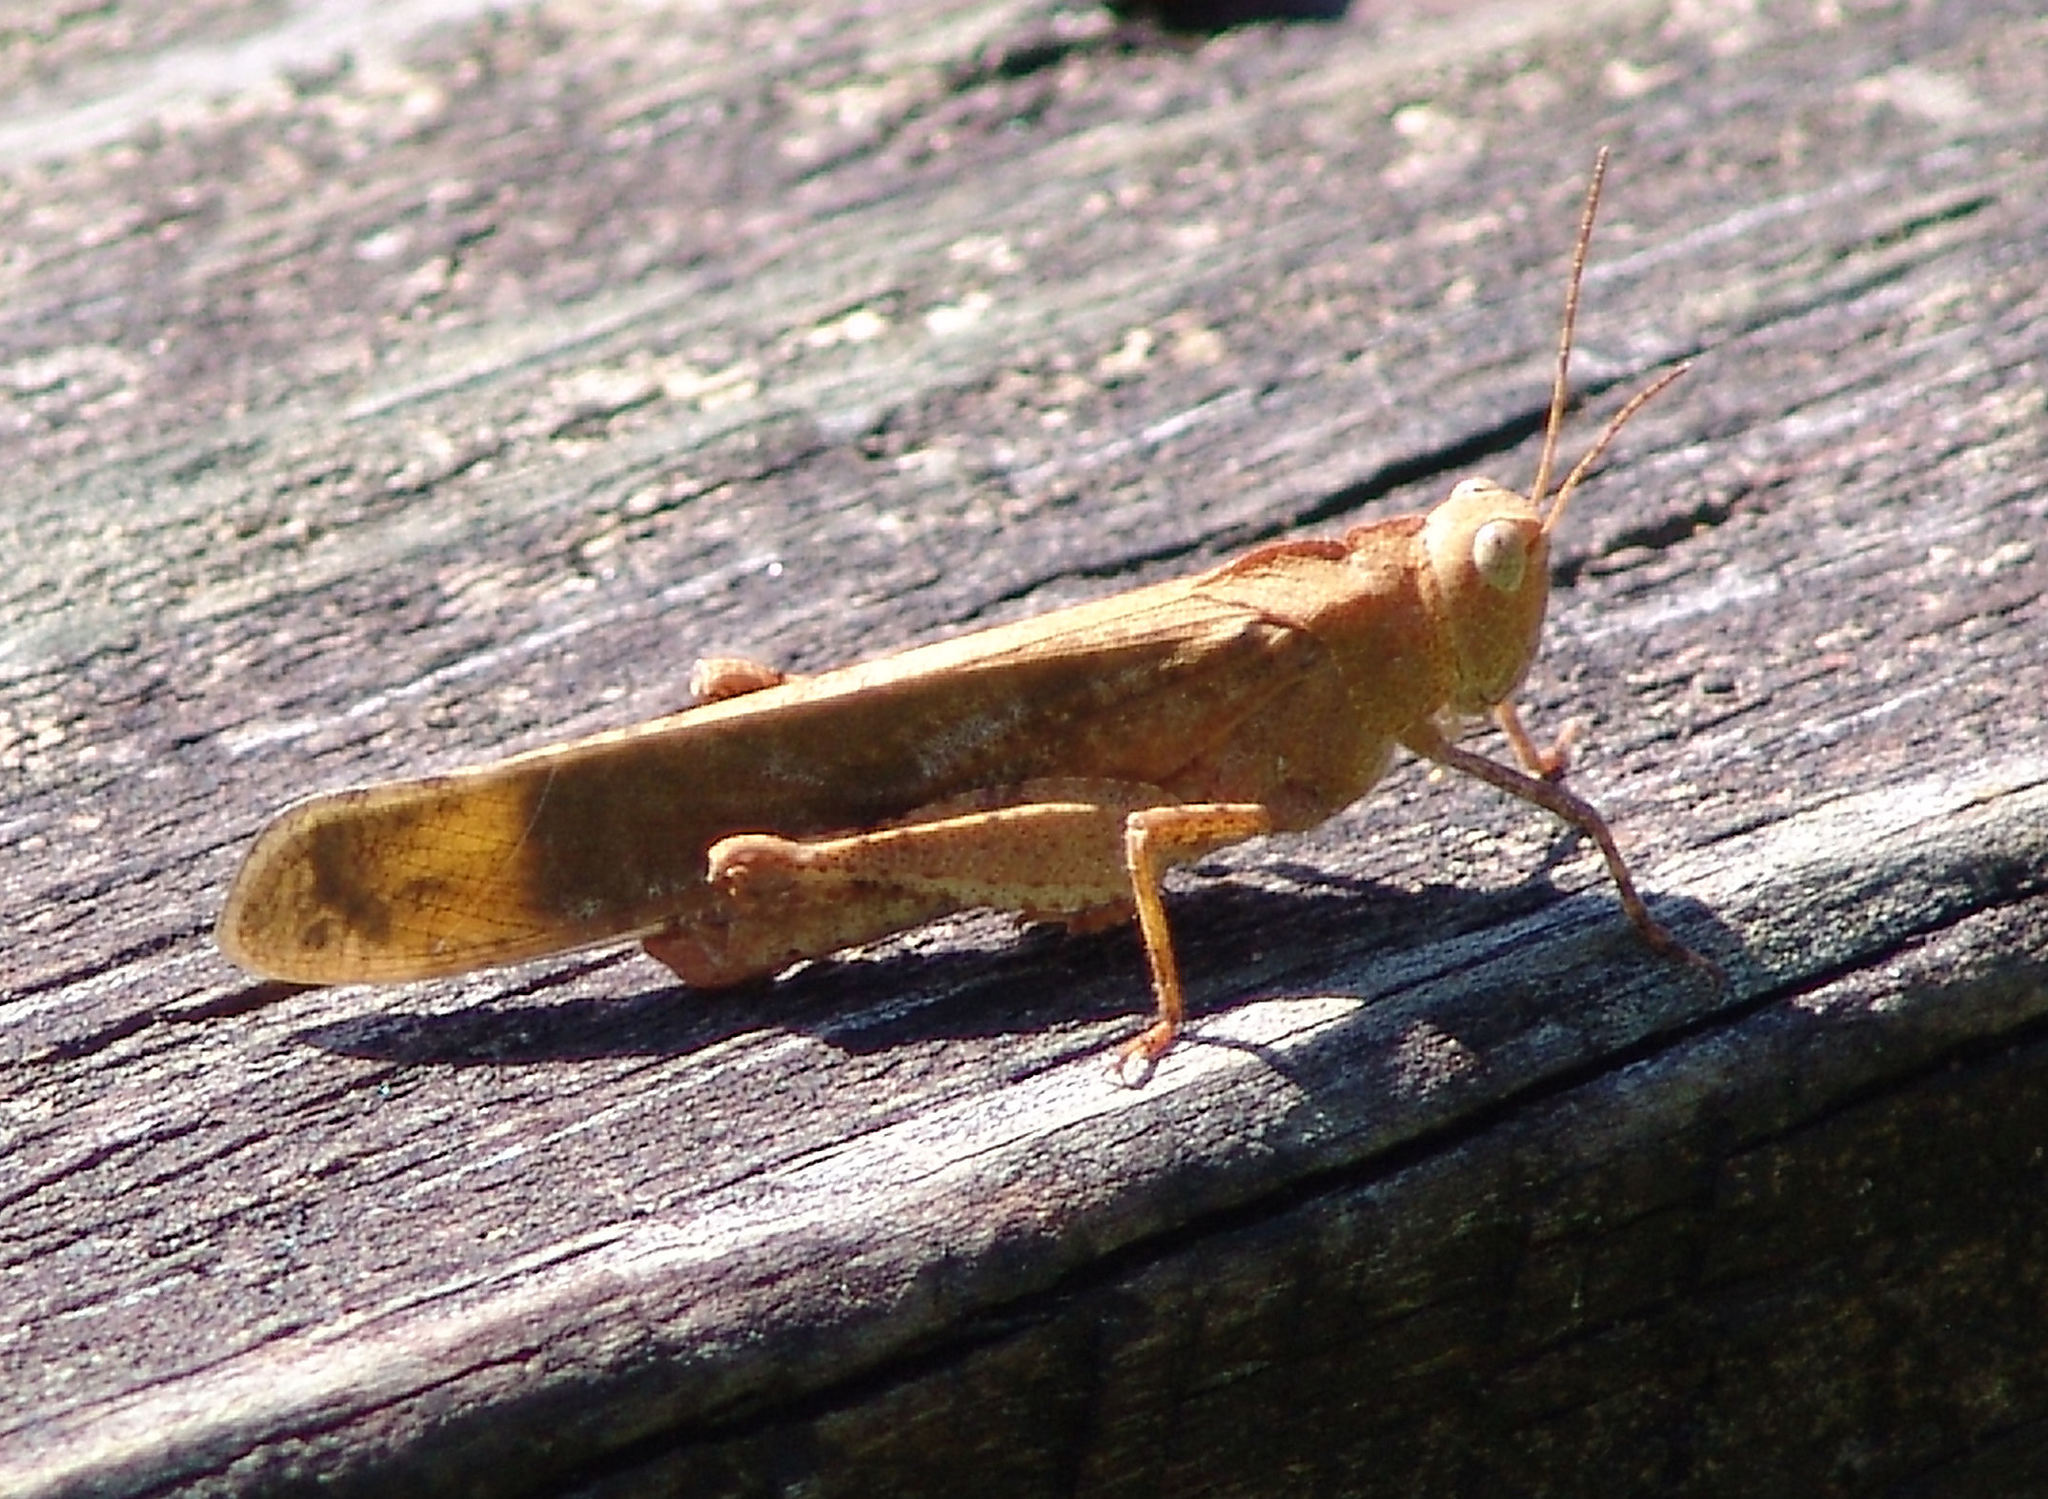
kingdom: Animalia
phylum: Arthropoda
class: Insecta
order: Orthoptera
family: Acrididae
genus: Dissosteira
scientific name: Dissosteira carolina
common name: Carolina grasshopper
